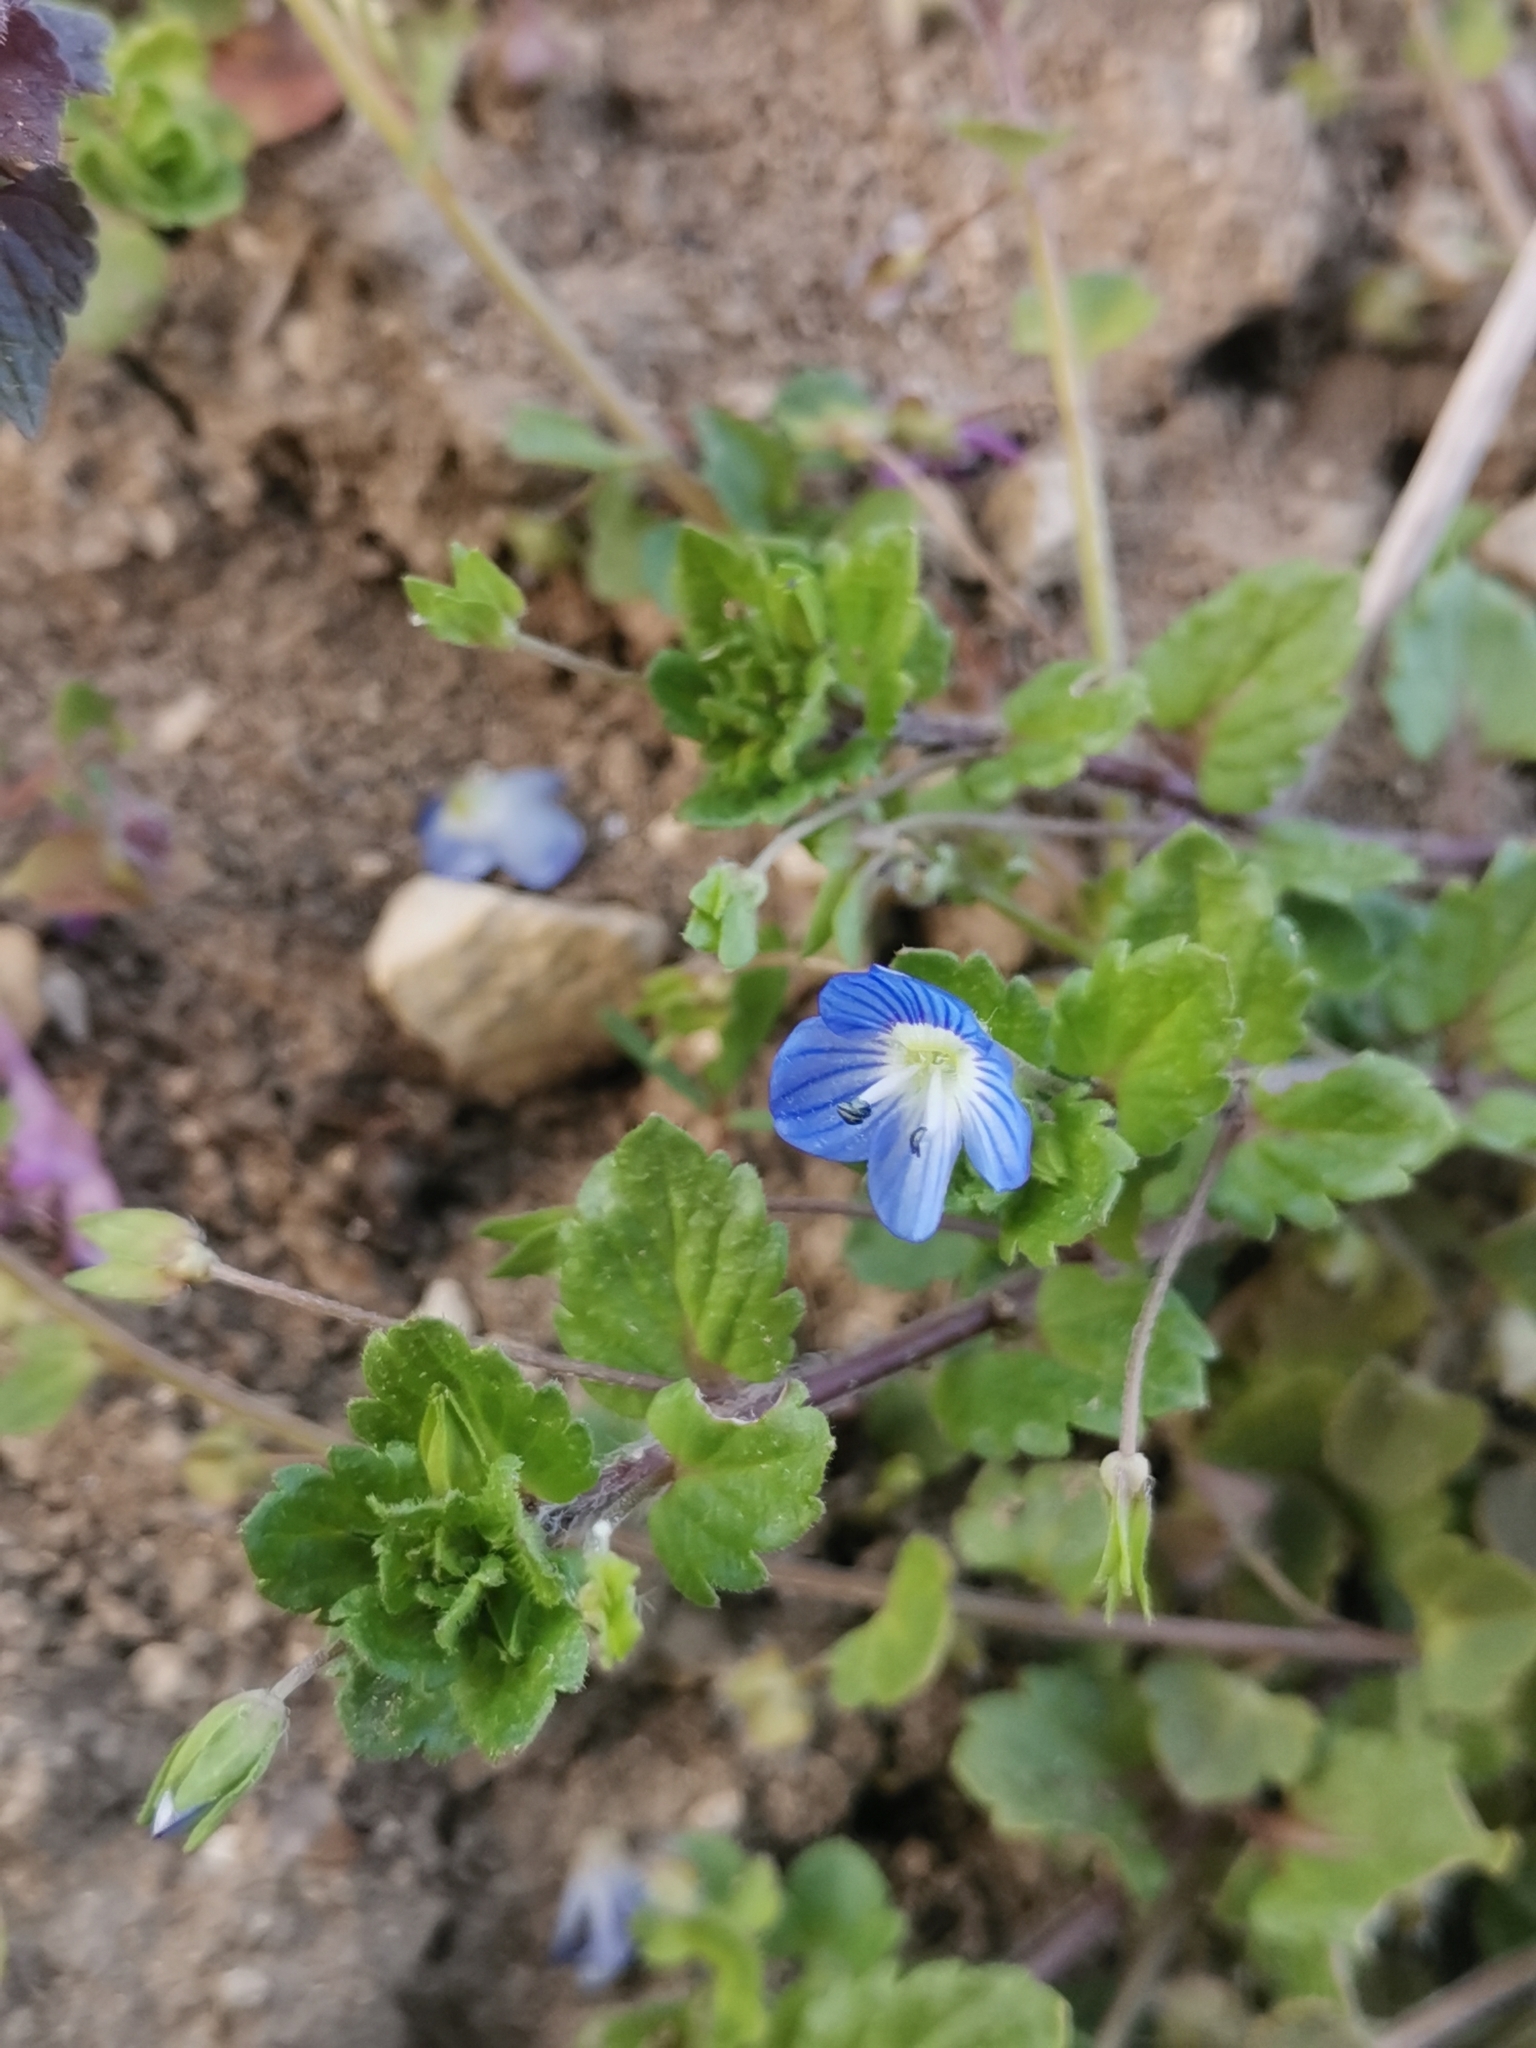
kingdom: Plantae
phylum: Tracheophyta
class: Magnoliopsida
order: Lamiales
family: Plantaginaceae
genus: Veronica
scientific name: Veronica persica
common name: Common field-speedwell
